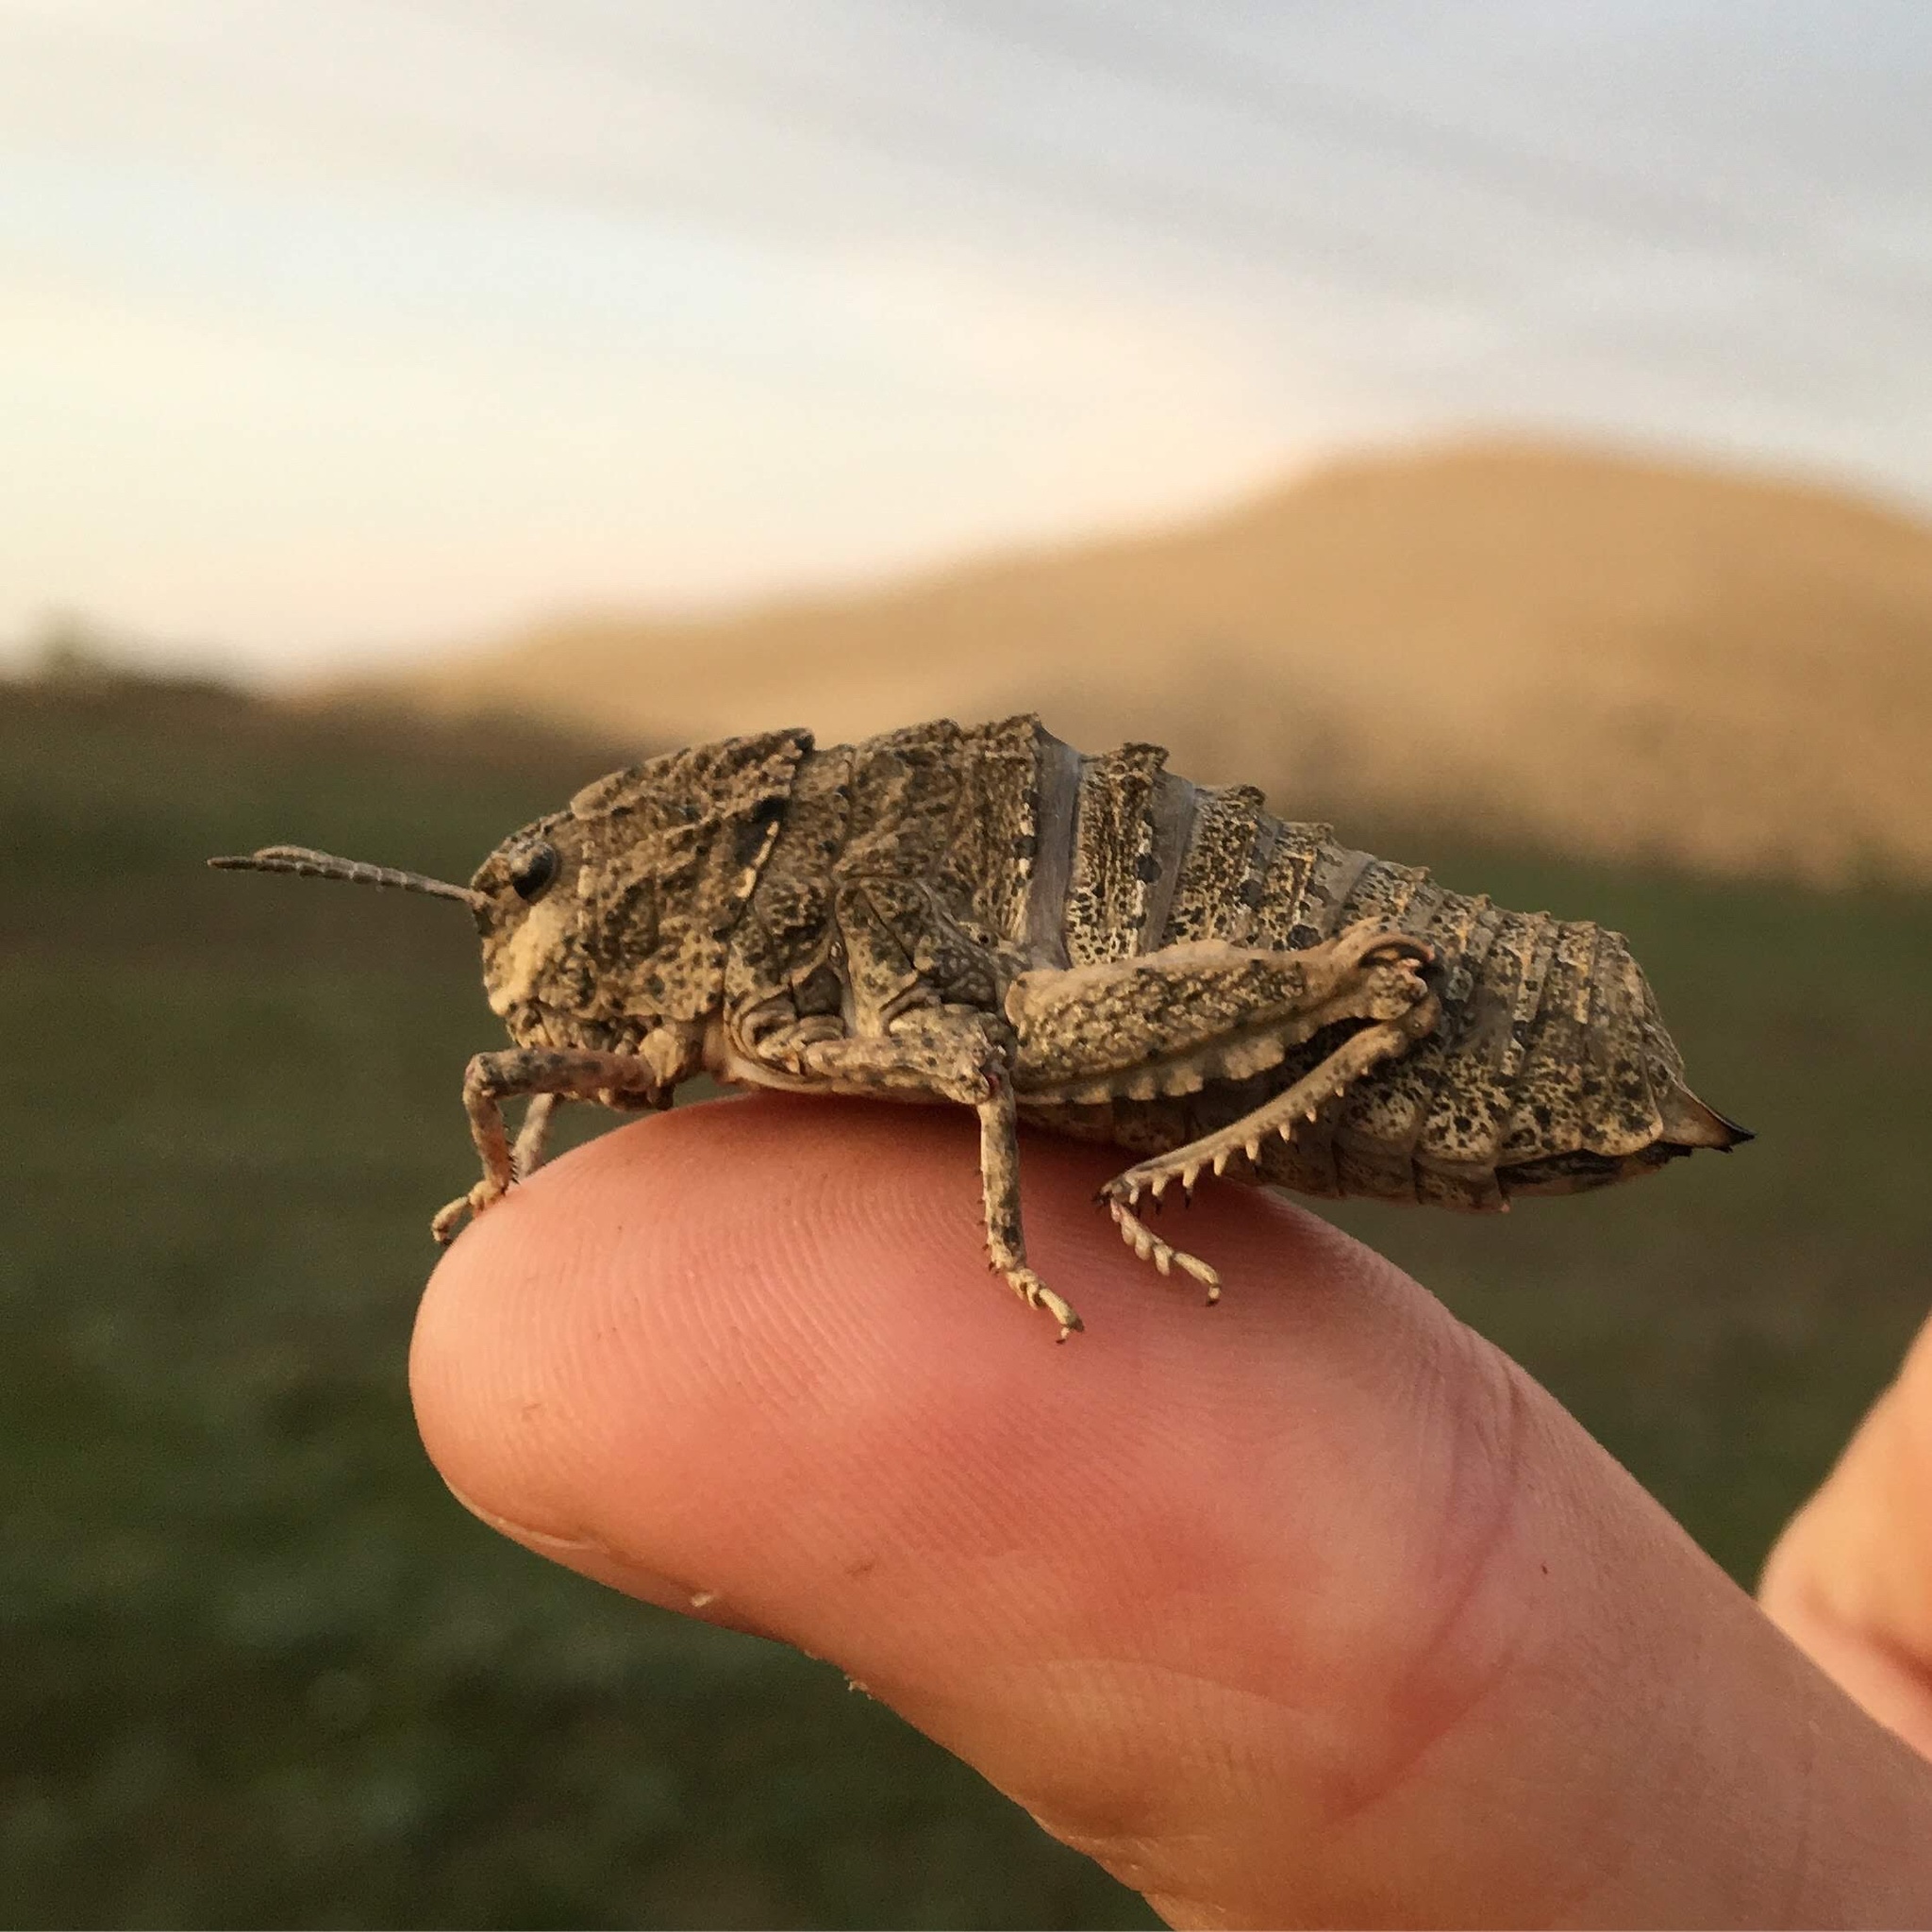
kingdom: Animalia
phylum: Arthropoda
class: Insecta
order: Orthoptera
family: Pamphagidae
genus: Nocarodes
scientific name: Nocarodes geniculatus
